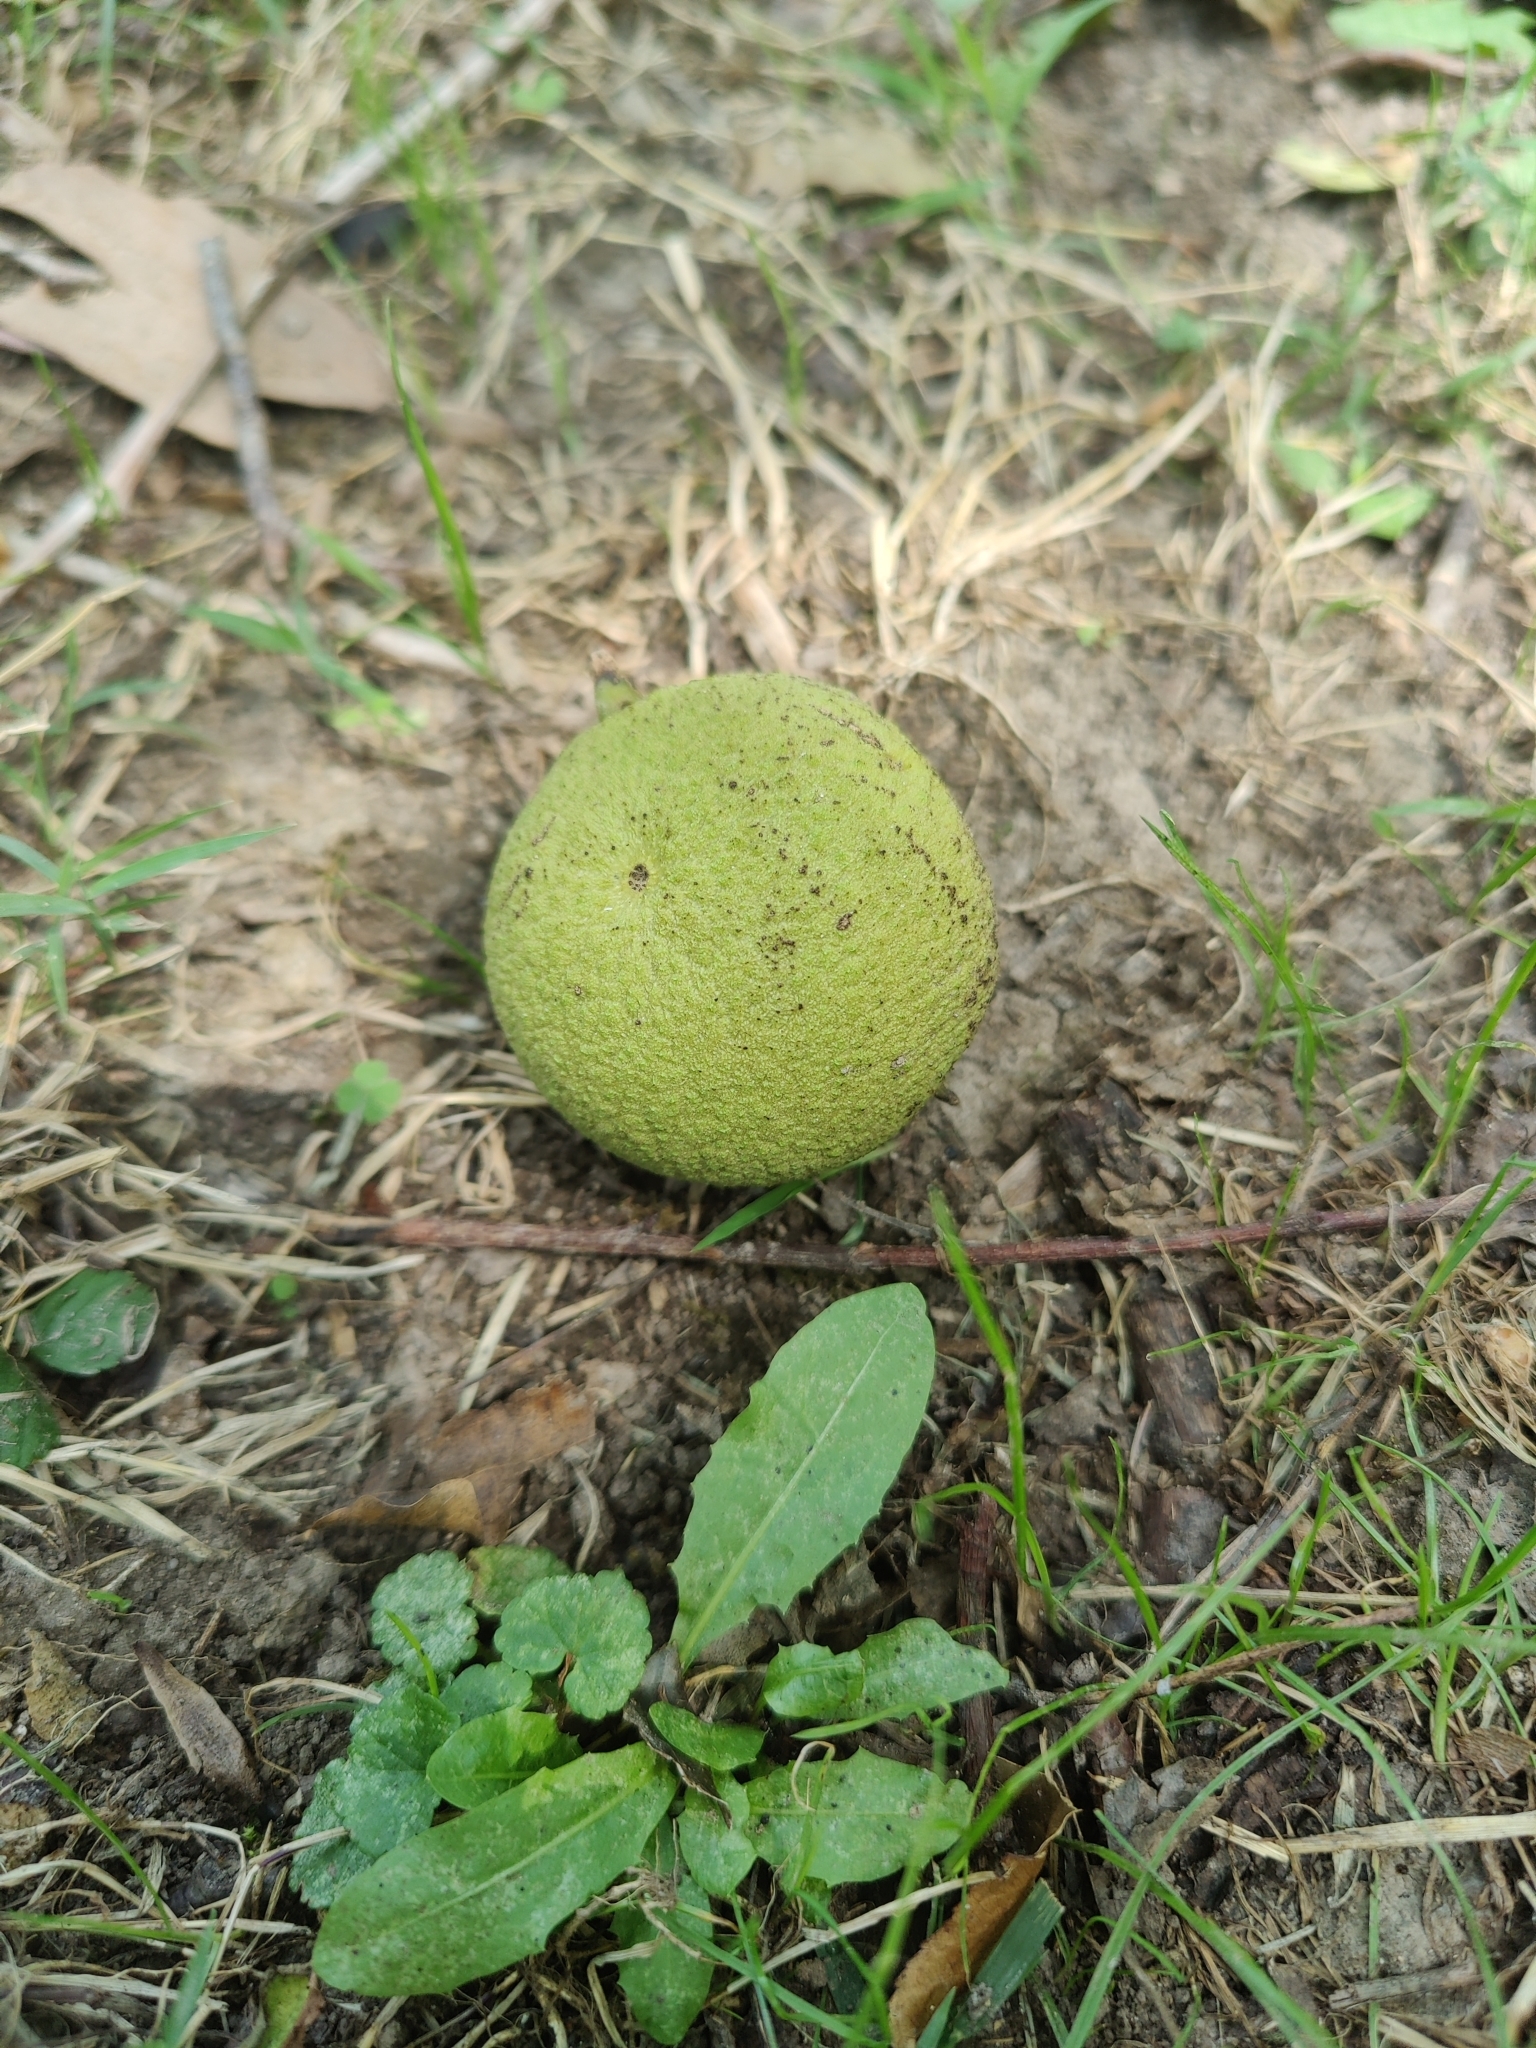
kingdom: Plantae
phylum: Tracheophyta
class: Magnoliopsida
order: Fagales
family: Juglandaceae
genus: Juglans
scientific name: Juglans nigra
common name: Black walnut
